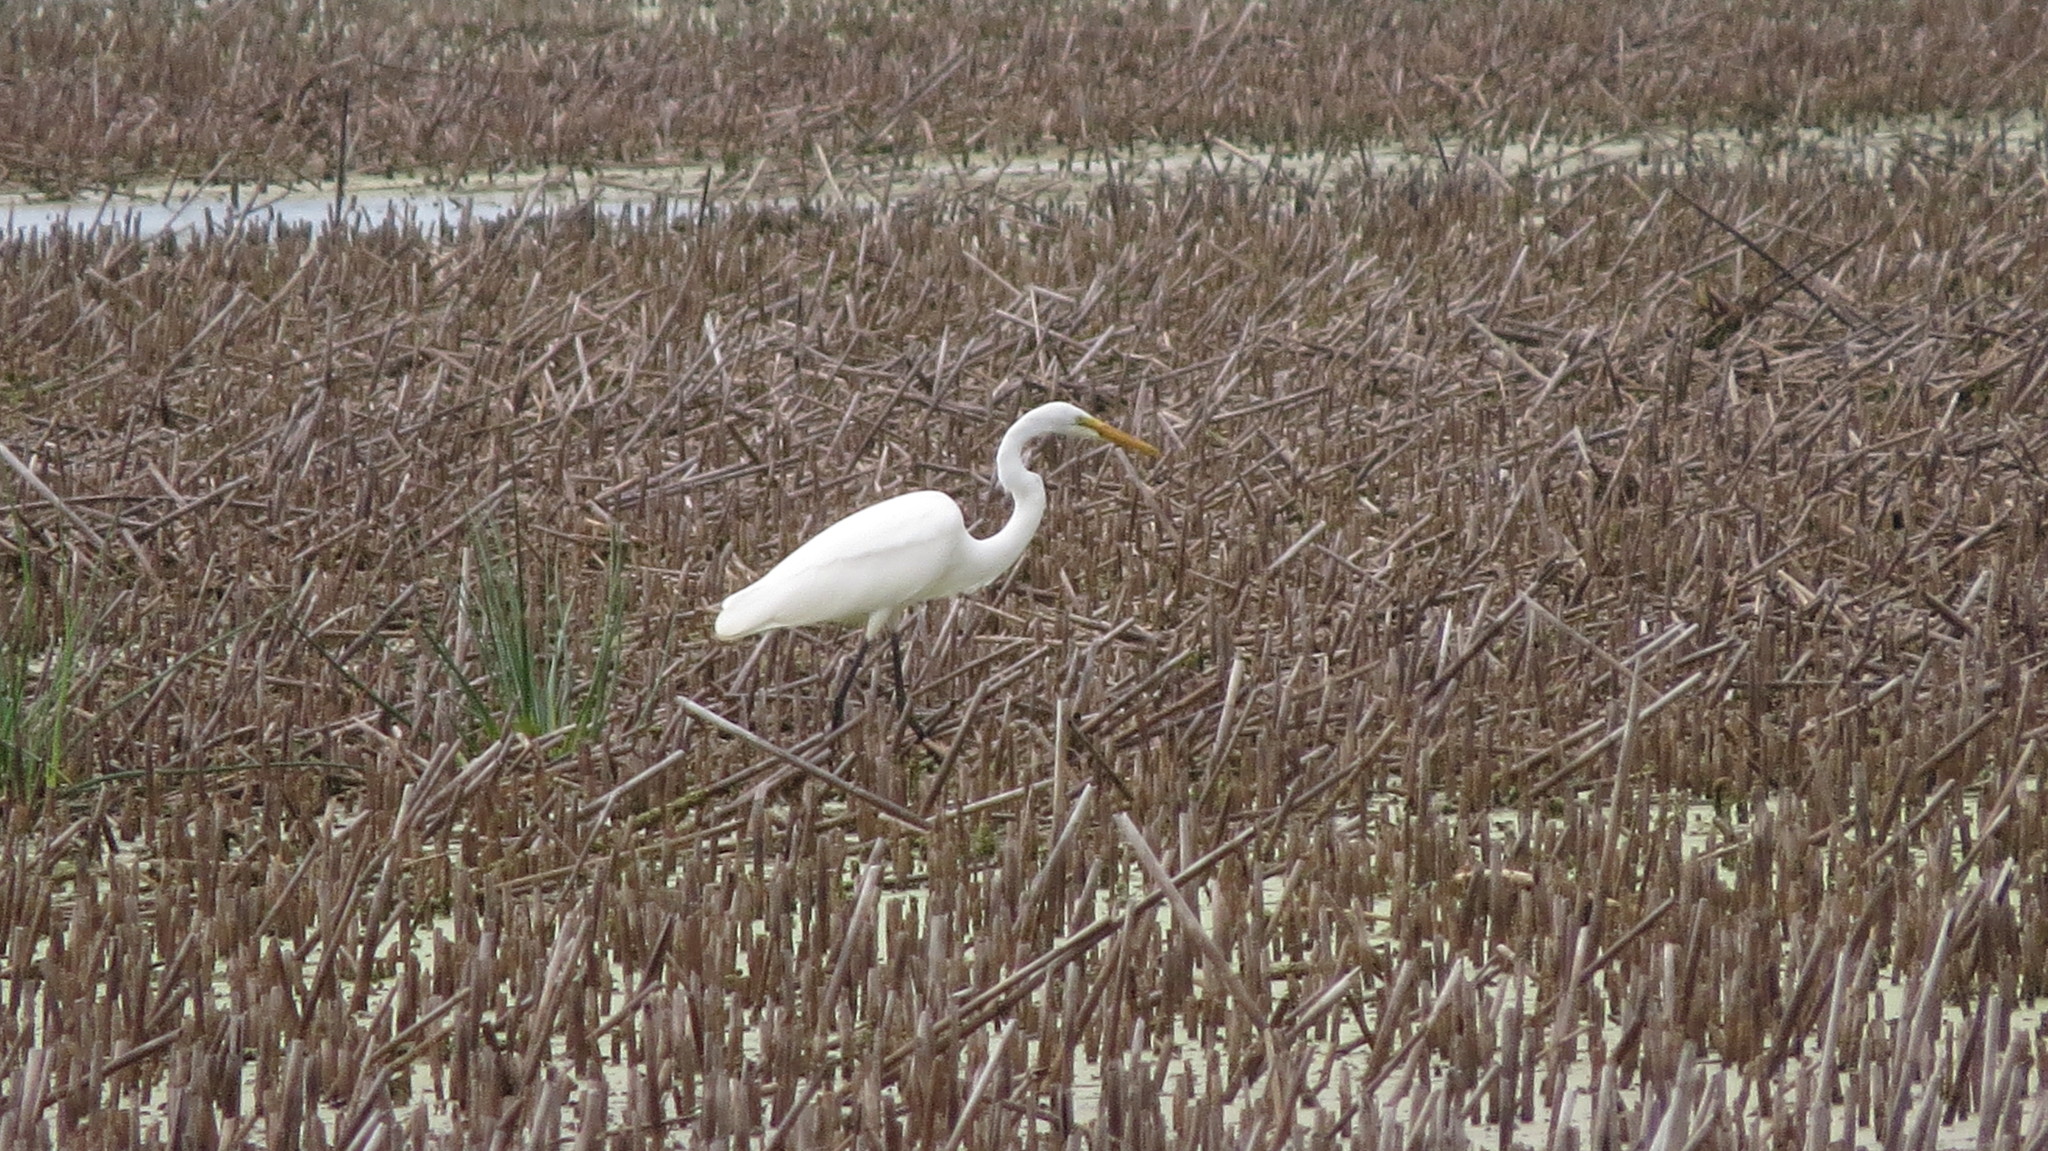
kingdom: Animalia
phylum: Chordata
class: Aves
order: Pelecaniformes
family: Ardeidae
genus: Ardea
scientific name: Ardea alba
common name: Great egret
